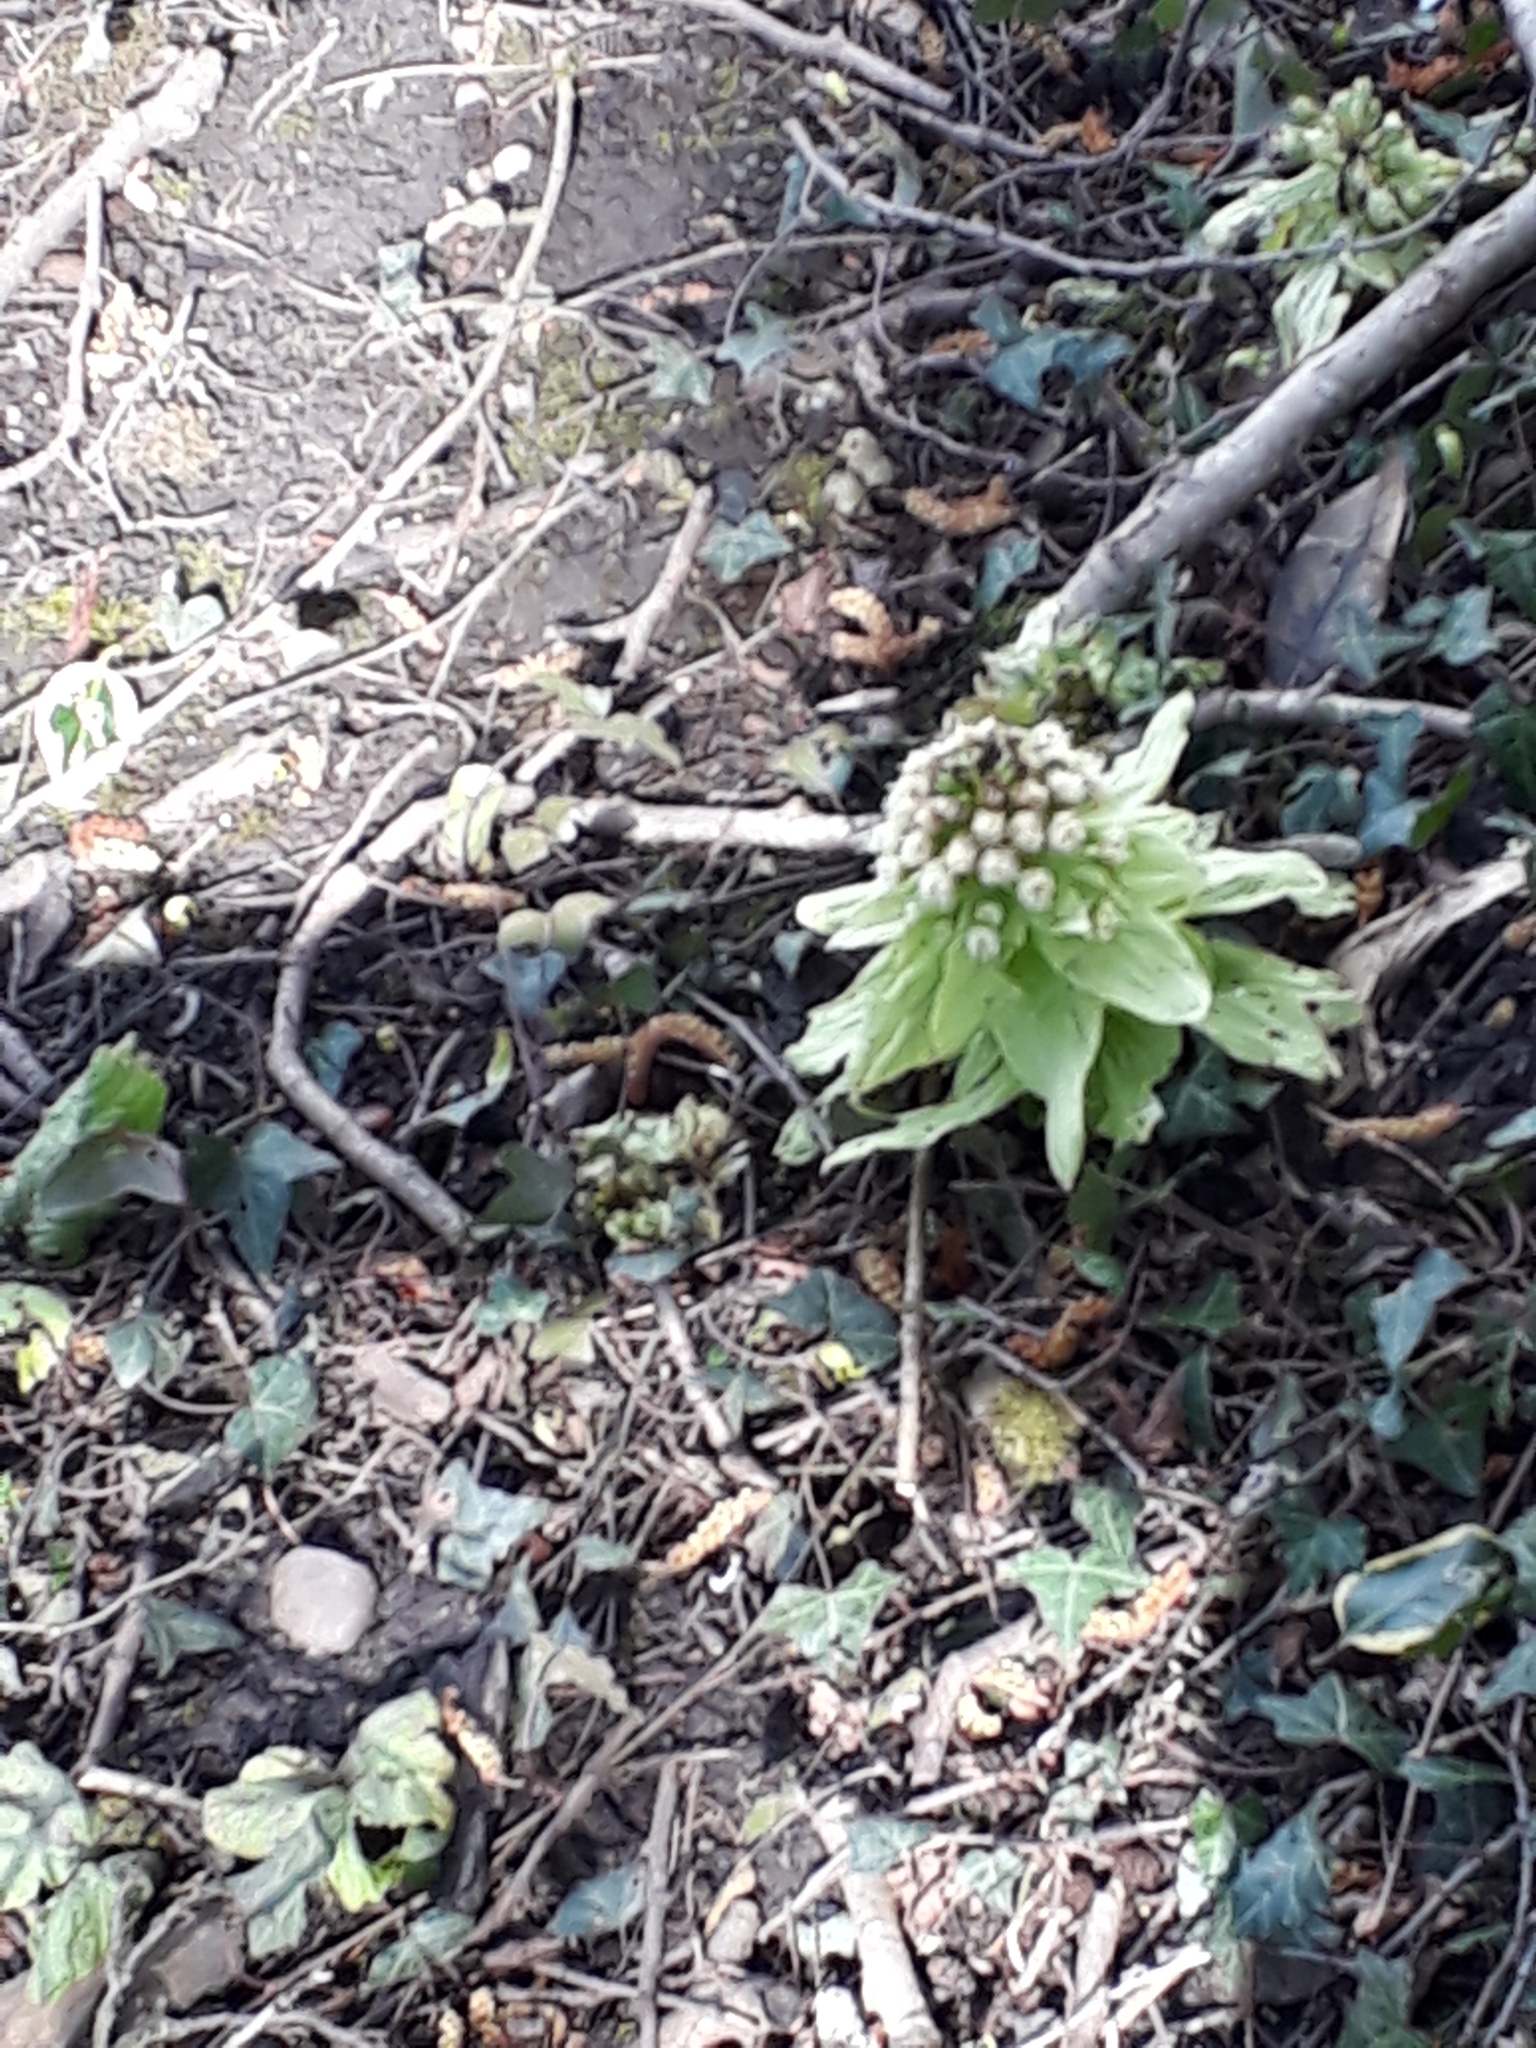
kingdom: Plantae
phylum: Tracheophyta
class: Magnoliopsida
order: Asterales
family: Asteraceae
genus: Petasites
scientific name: Petasites japonicus
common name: Giant butterbur
